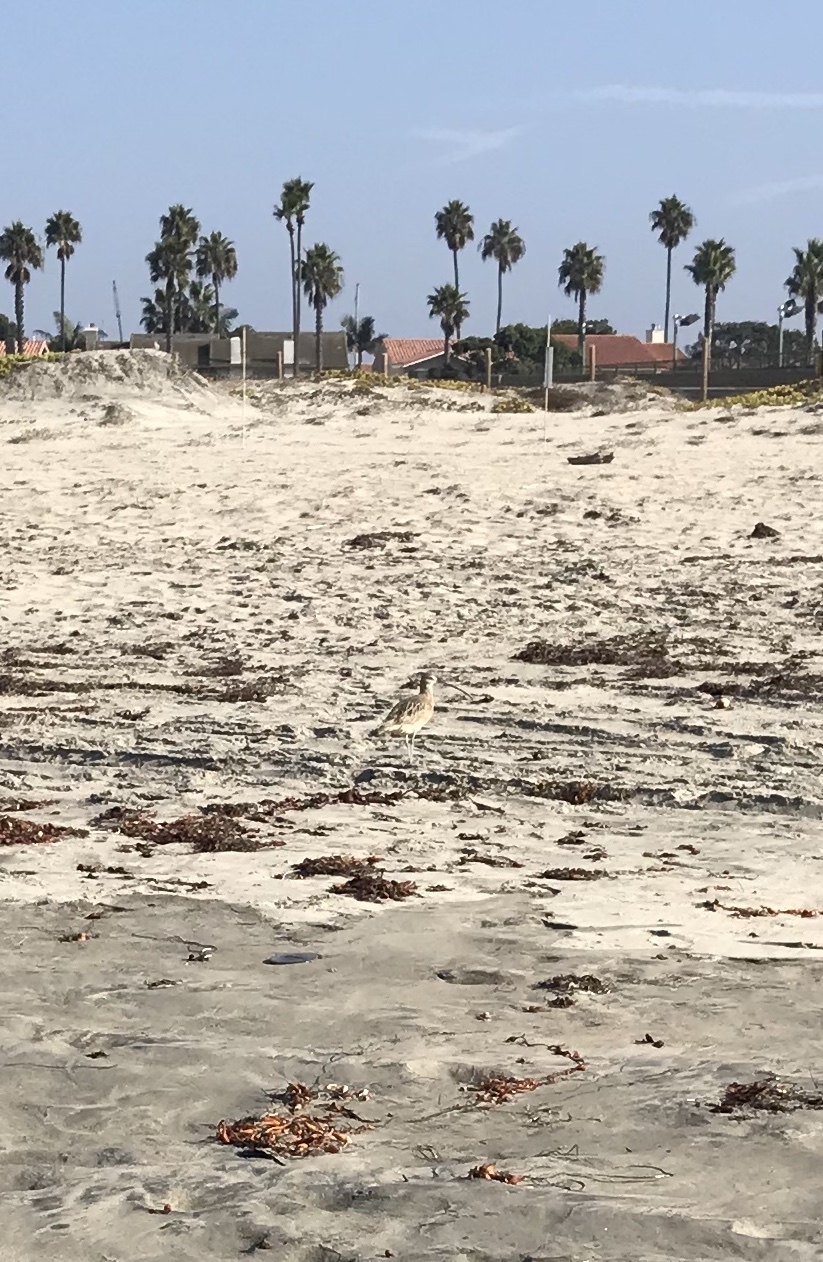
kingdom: Animalia
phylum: Chordata
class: Aves
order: Charadriiformes
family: Scolopacidae
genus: Numenius
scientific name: Numenius phaeopus
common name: Whimbrel
